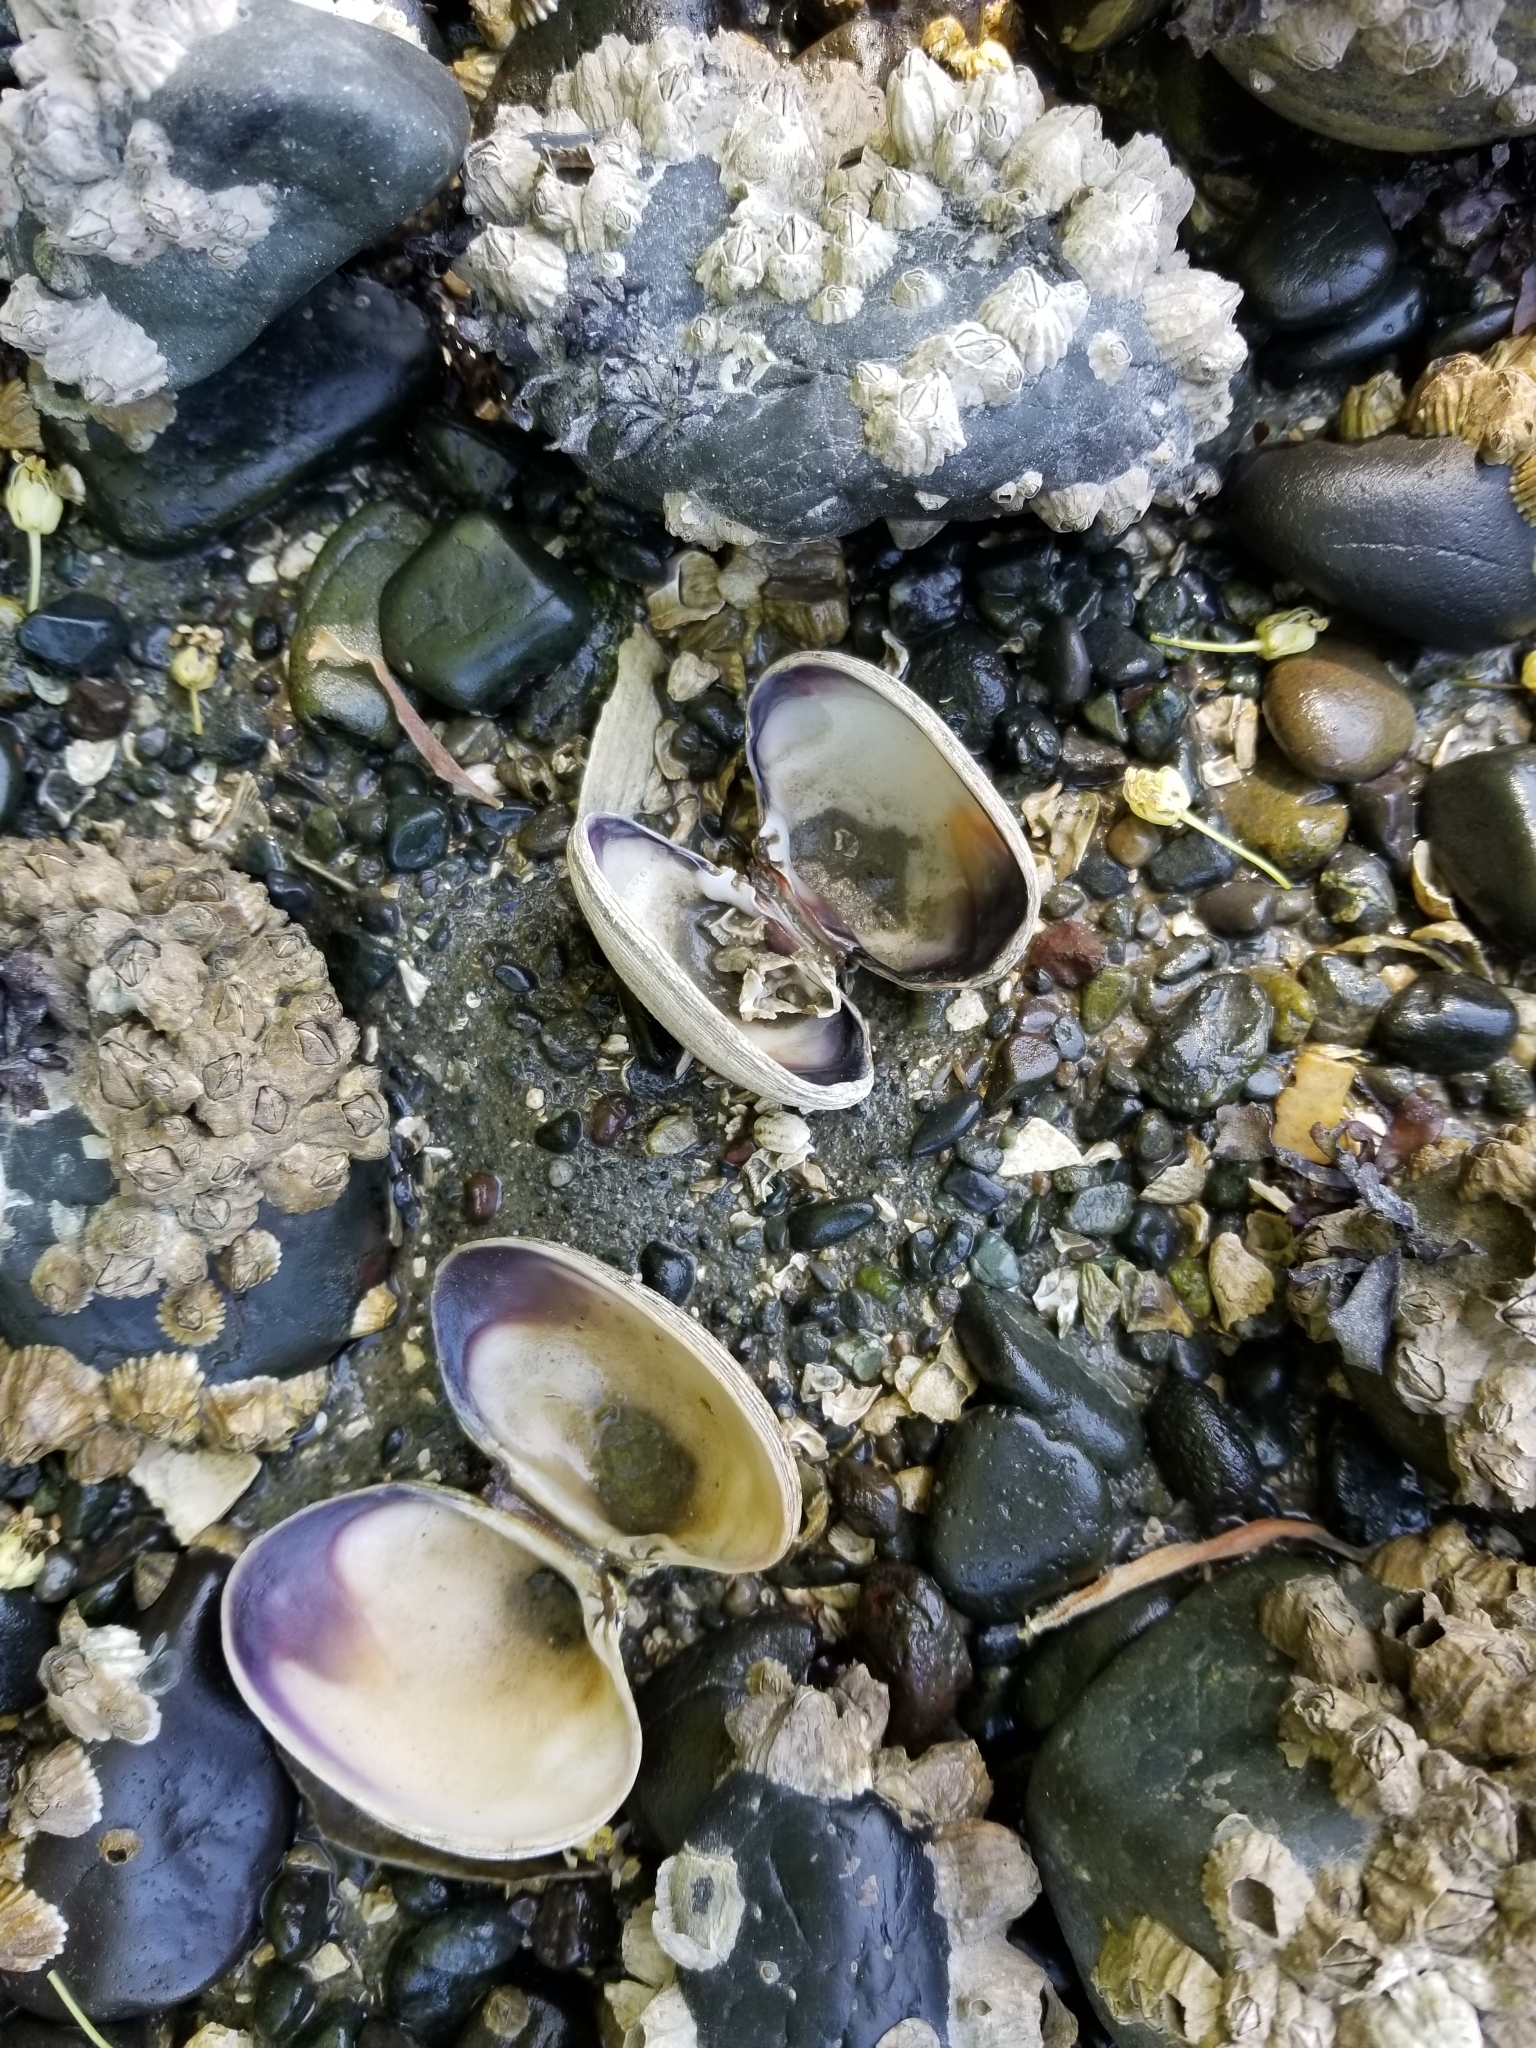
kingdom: Animalia
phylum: Mollusca
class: Bivalvia
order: Venerida
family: Veneridae
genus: Ruditapes
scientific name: Ruditapes philippinarum
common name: Manila clam
